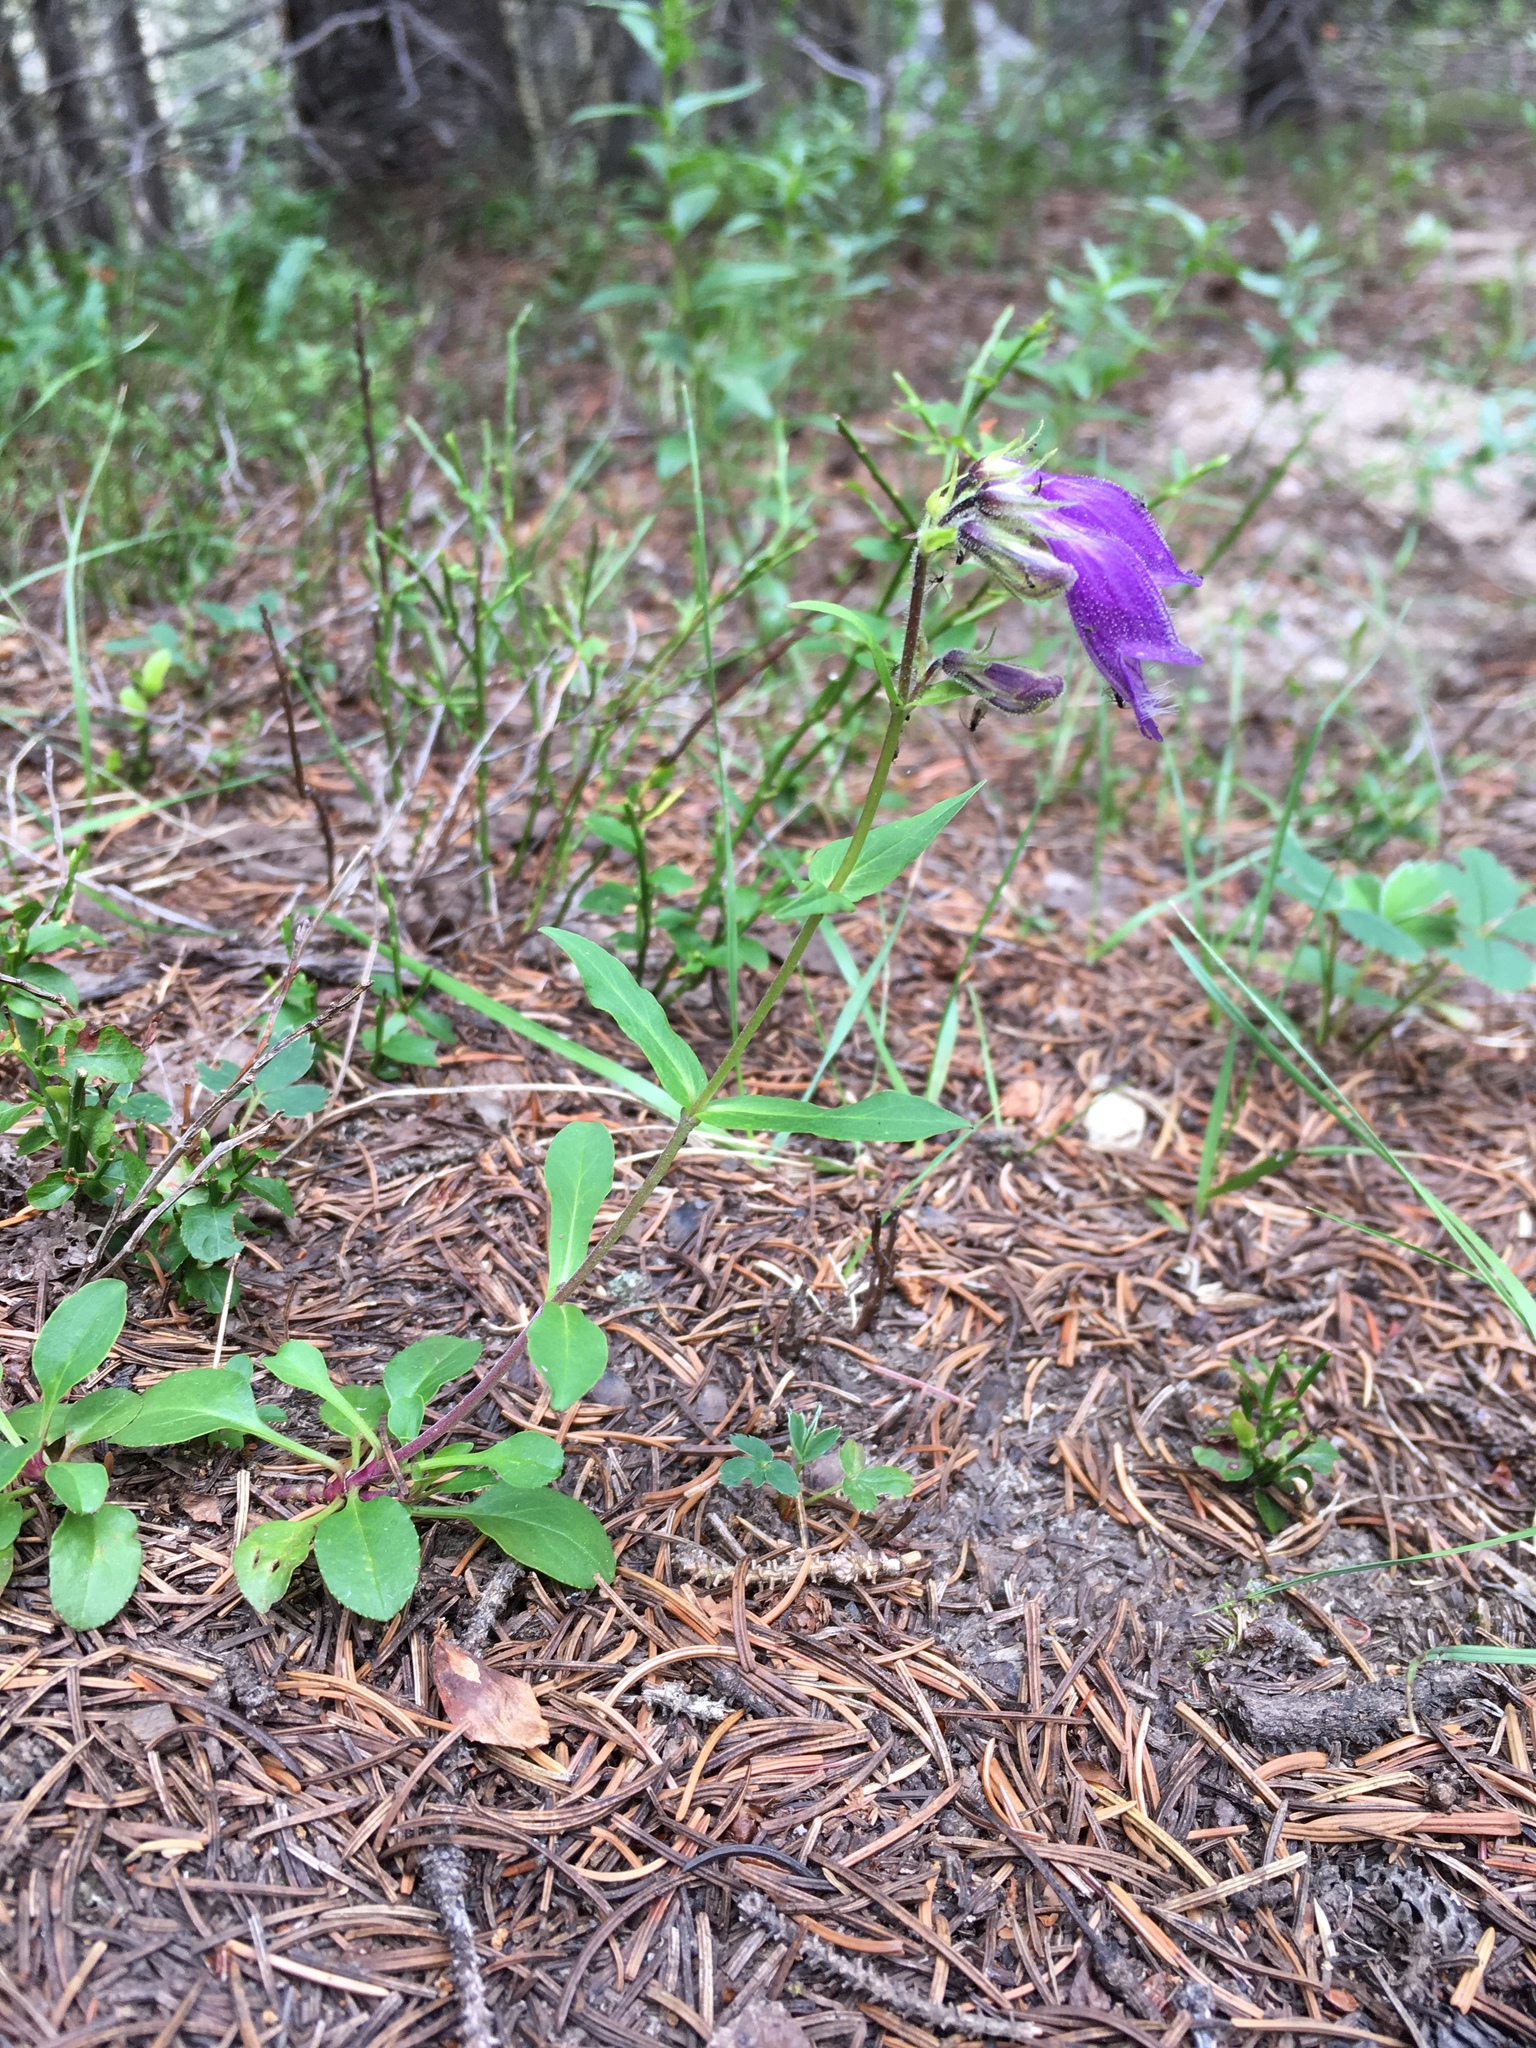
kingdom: Plantae
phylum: Tracheophyta
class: Magnoliopsida
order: Lamiales
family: Plantaginaceae
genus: Penstemon
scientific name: Penstemon whippleanus
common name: Whipple's penstemon
